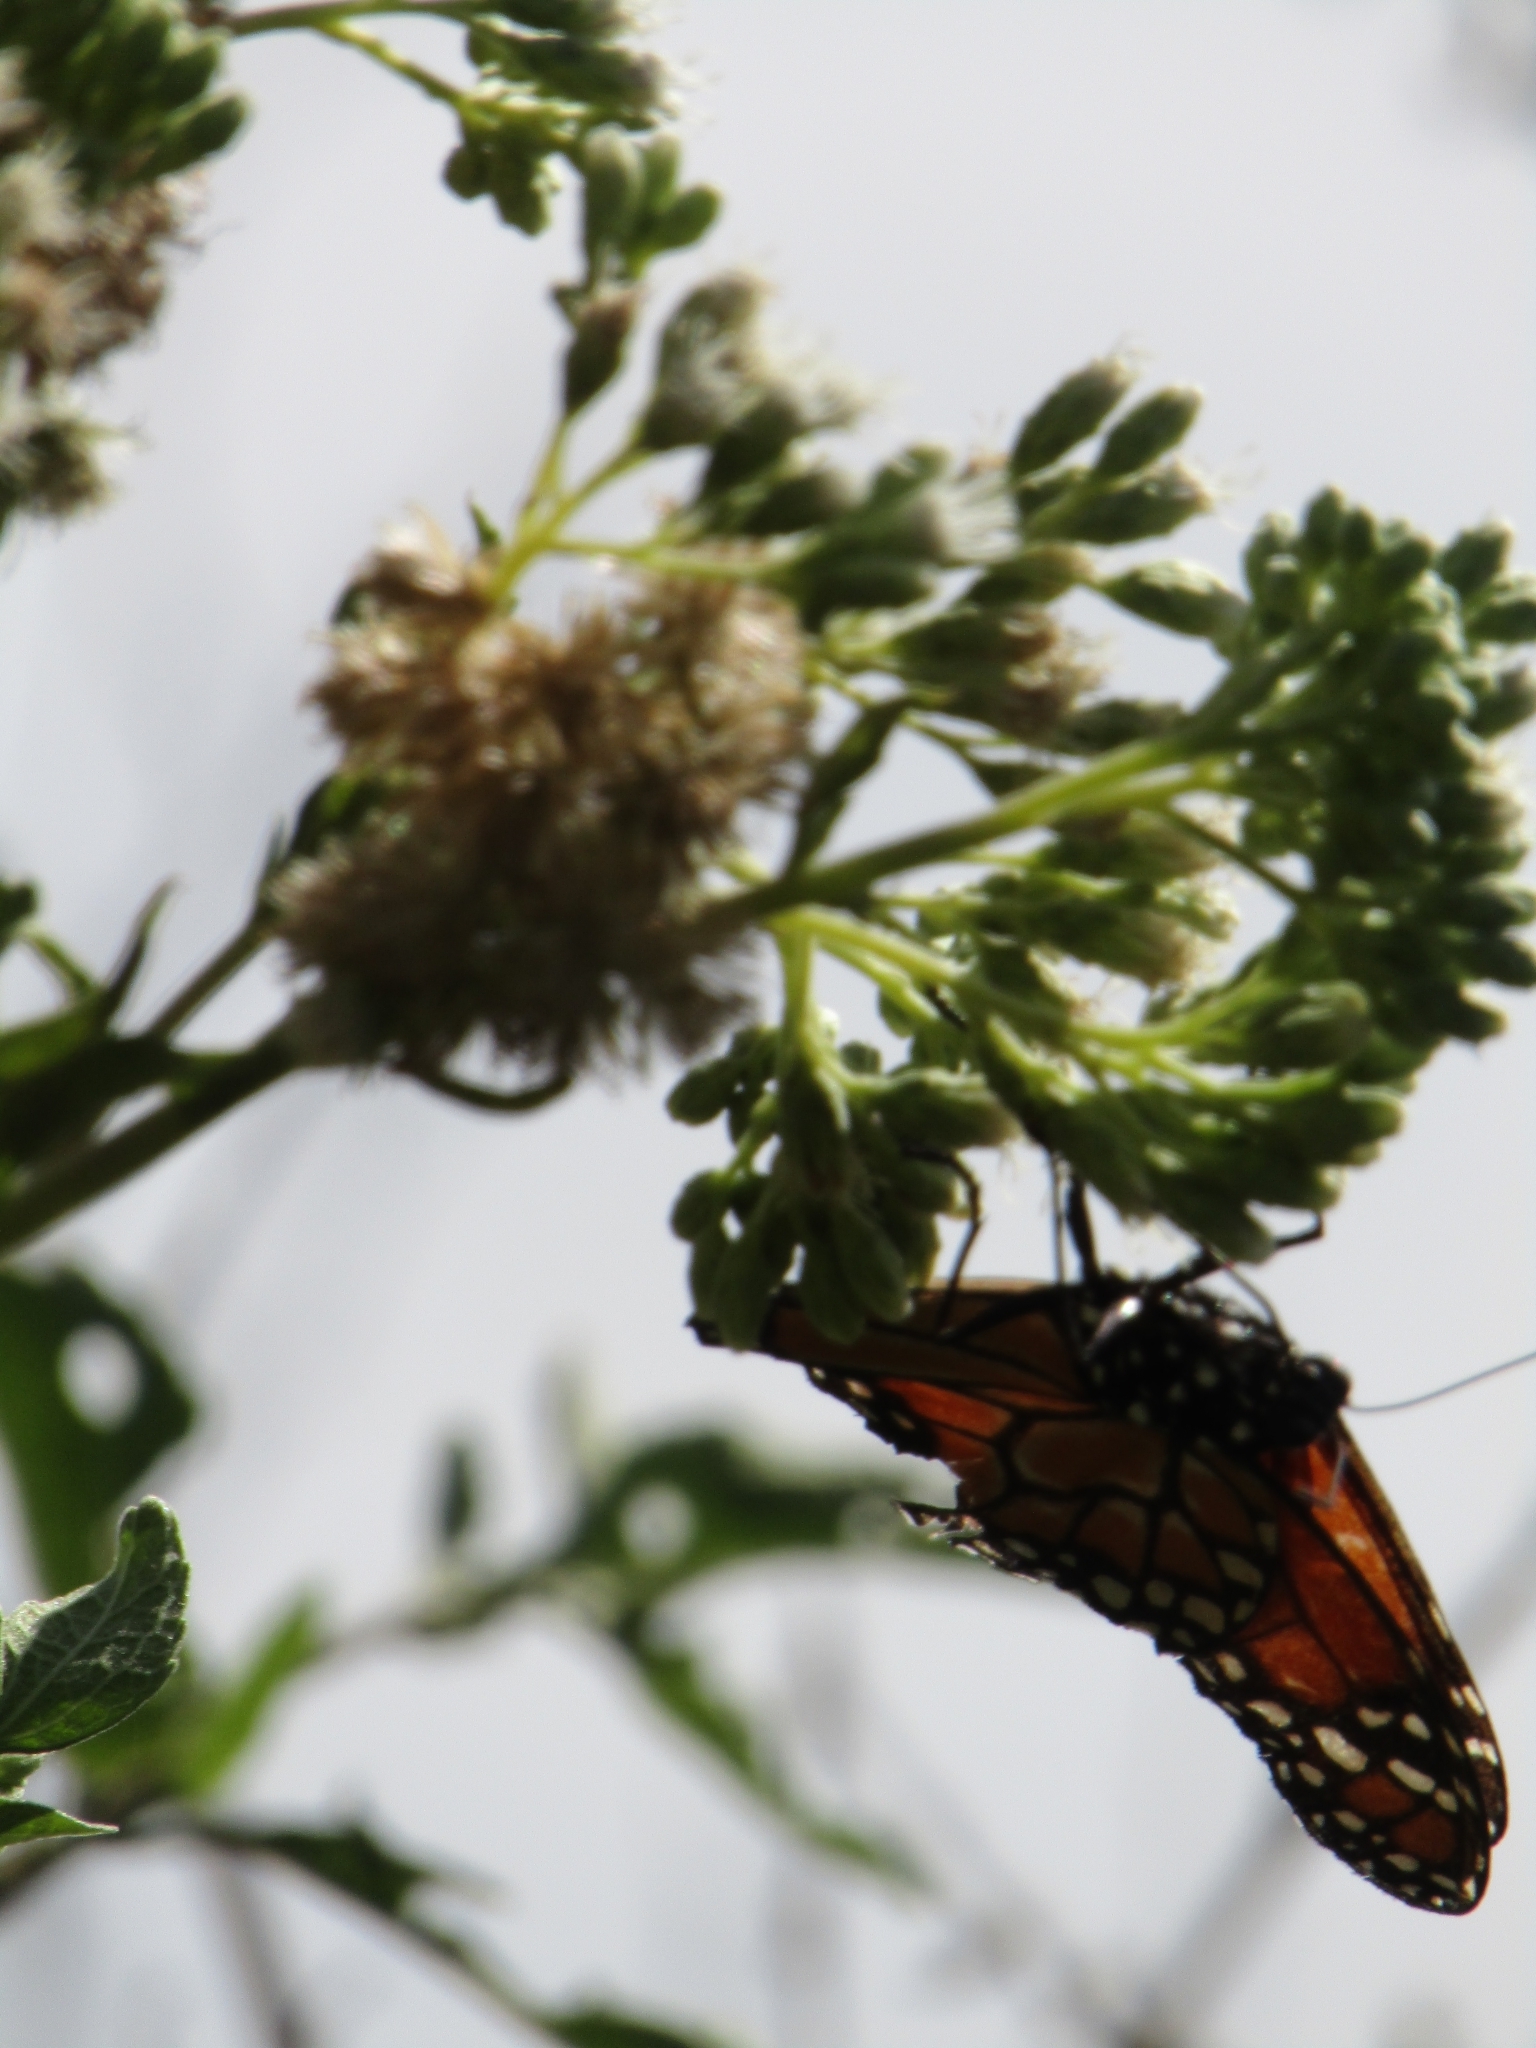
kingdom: Animalia
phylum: Arthropoda
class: Insecta
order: Lepidoptera
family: Nymphalidae
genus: Danaus
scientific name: Danaus erippus
